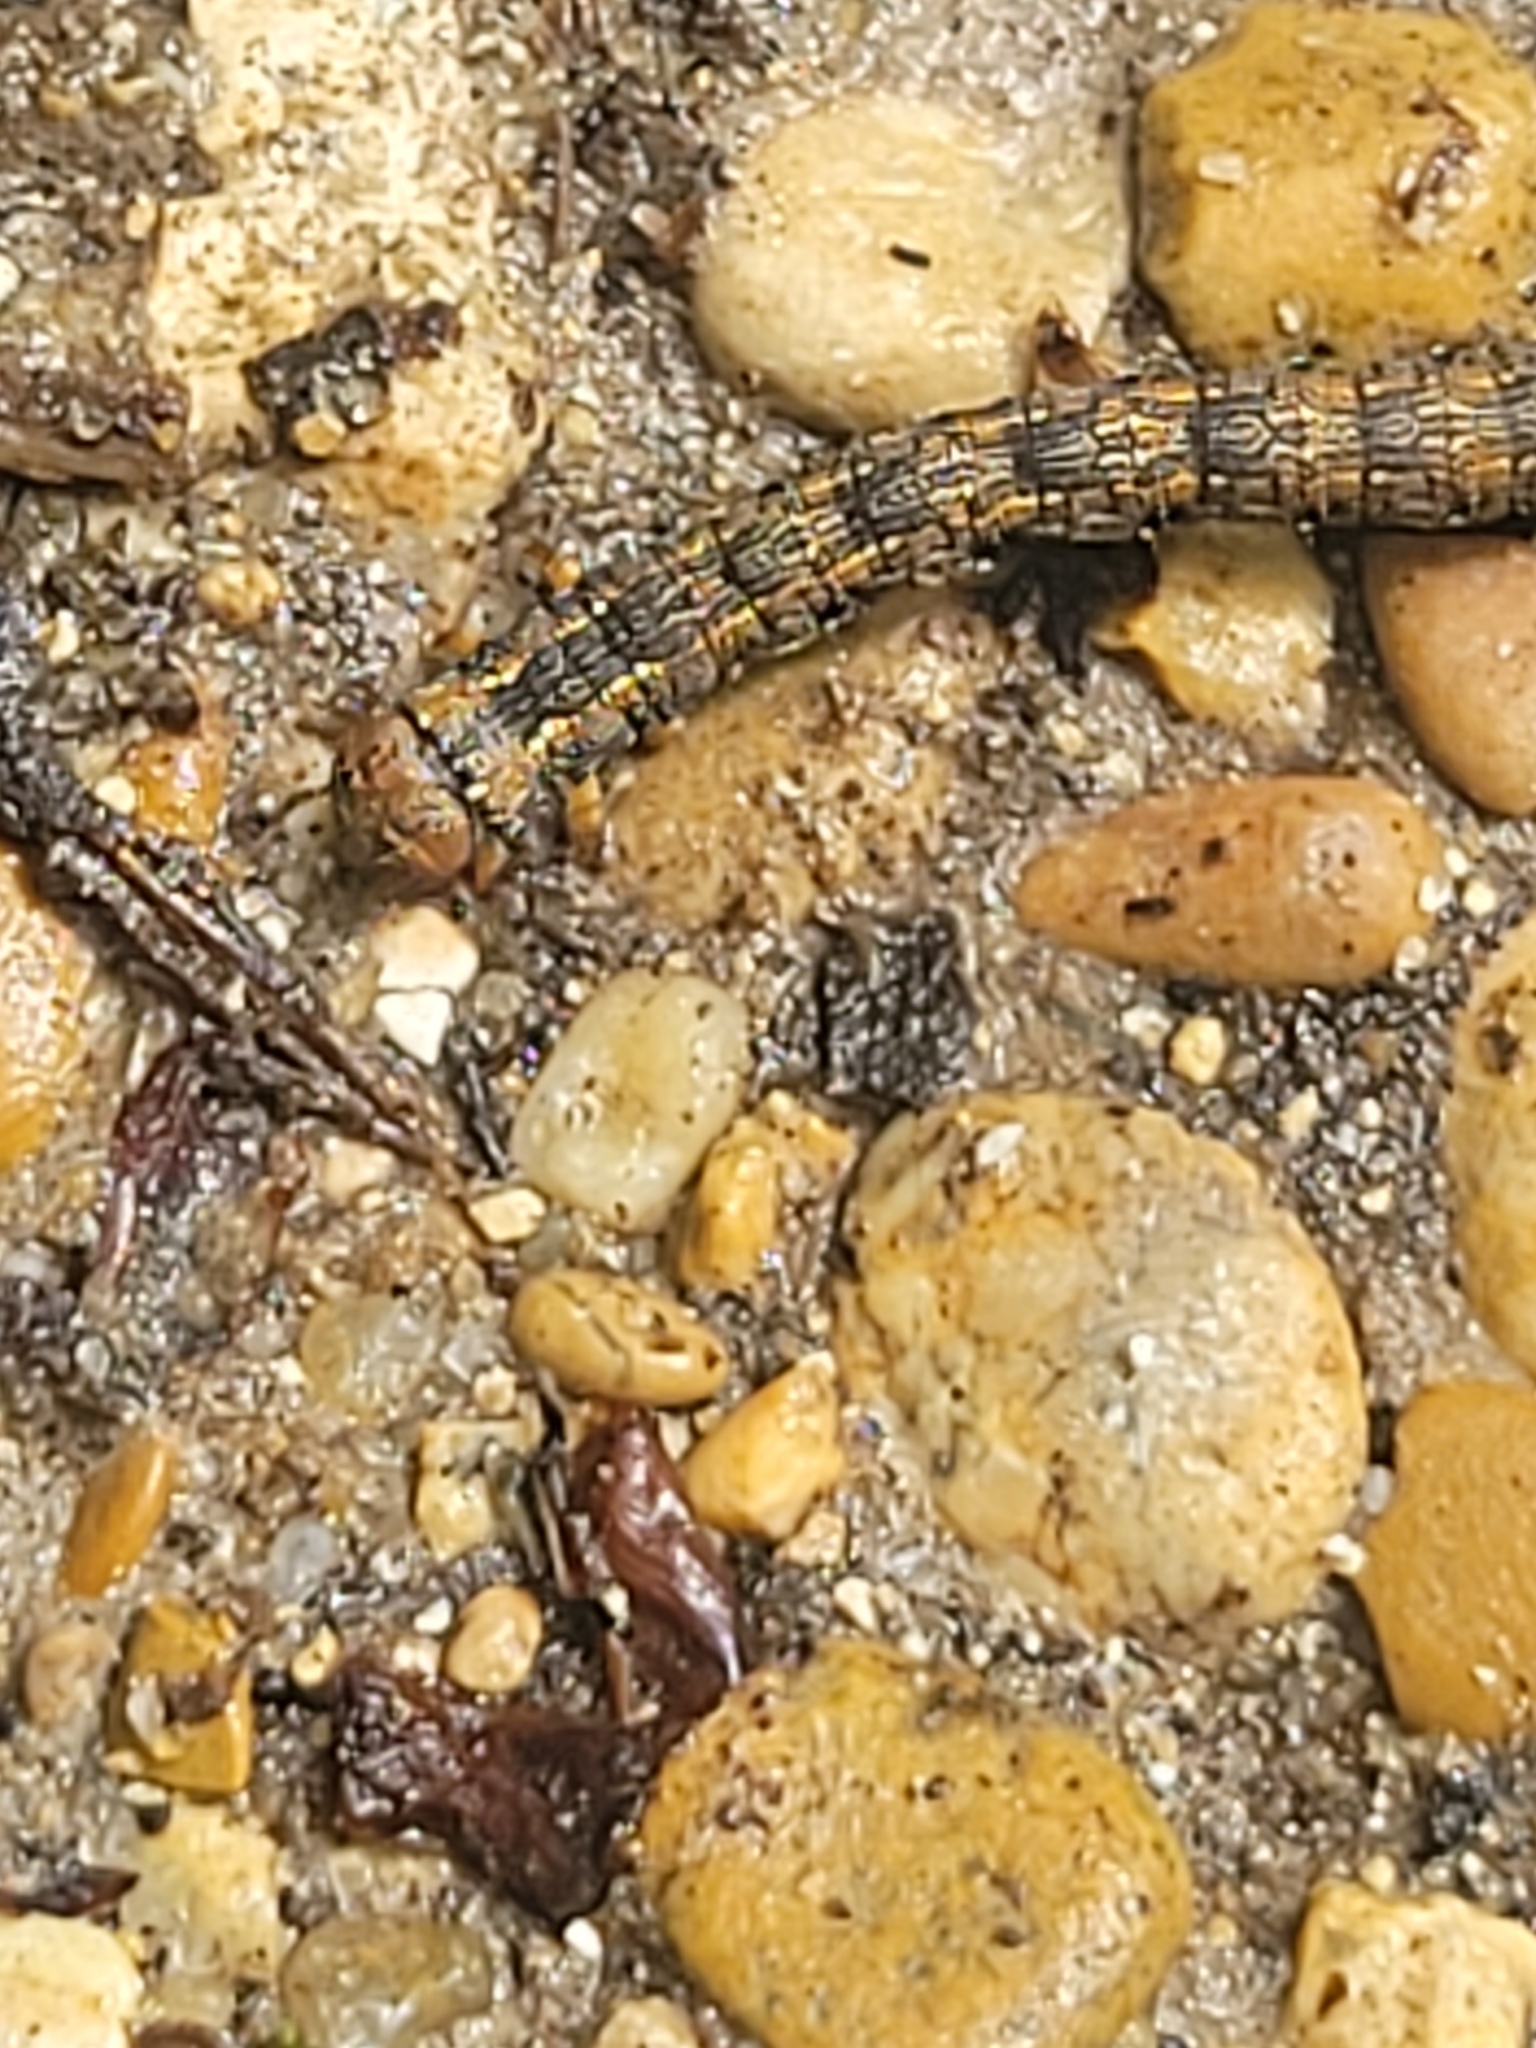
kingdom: Animalia
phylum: Arthropoda
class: Insecta
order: Lepidoptera
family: Geometridae
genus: Colotois
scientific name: Colotois pennaria
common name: Feathered thorn
